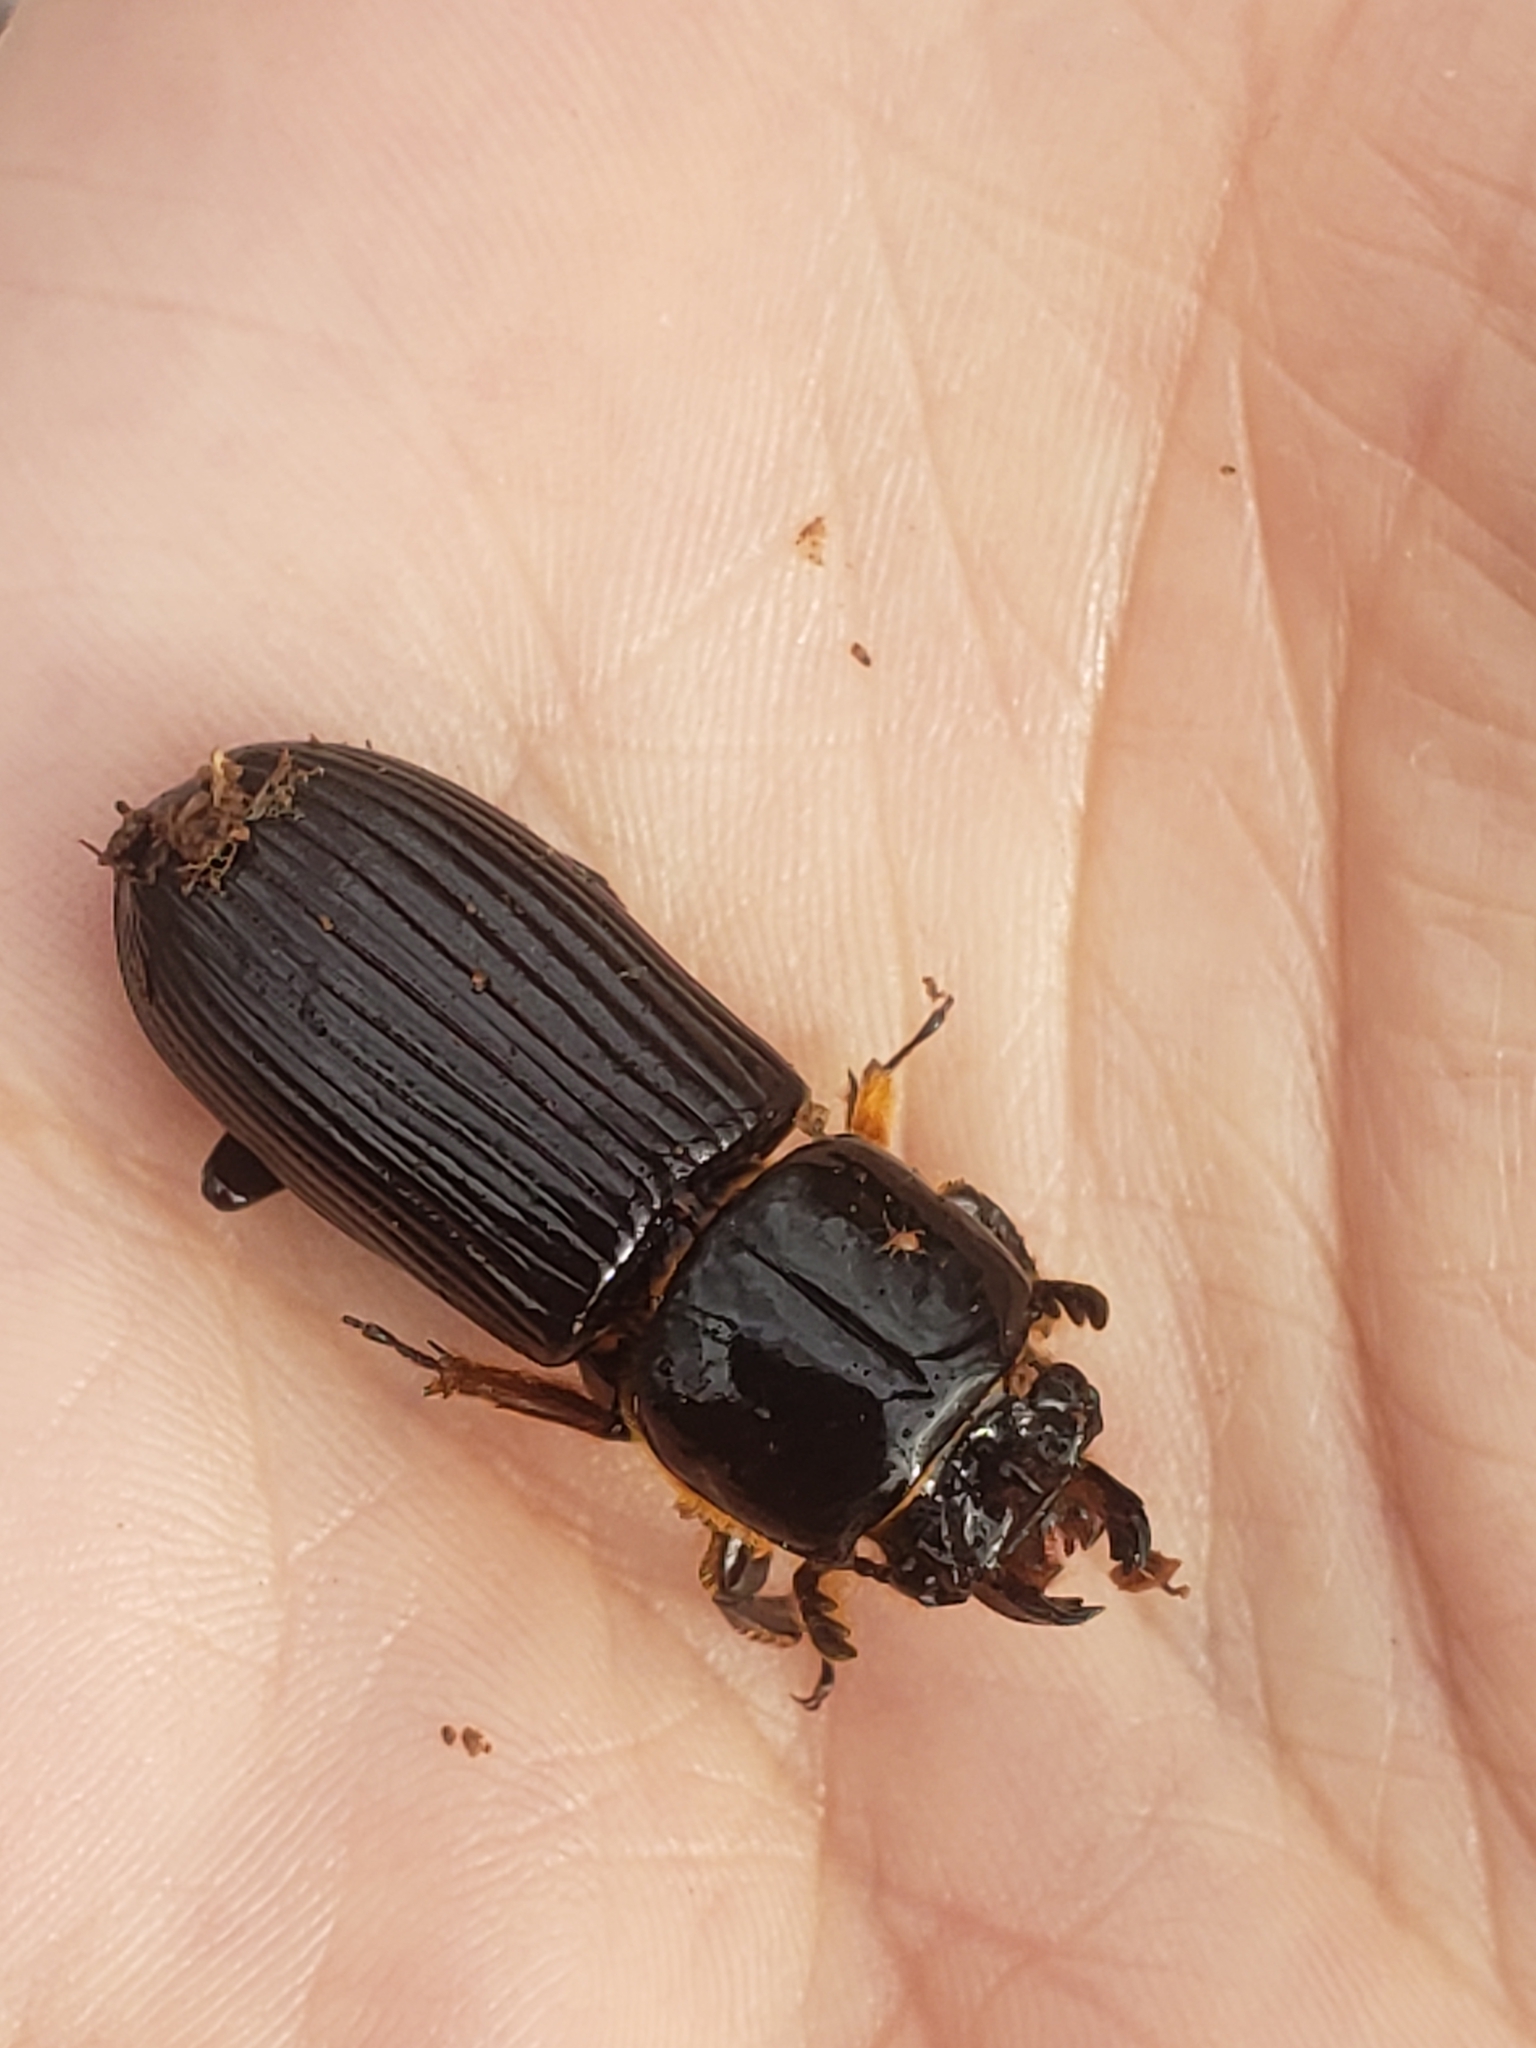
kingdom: Animalia
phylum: Arthropoda
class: Insecta
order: Coleoptera
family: Passalidae
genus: Odontotaenius
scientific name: Odontotaenius disjunctus
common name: Patent leather beetle
